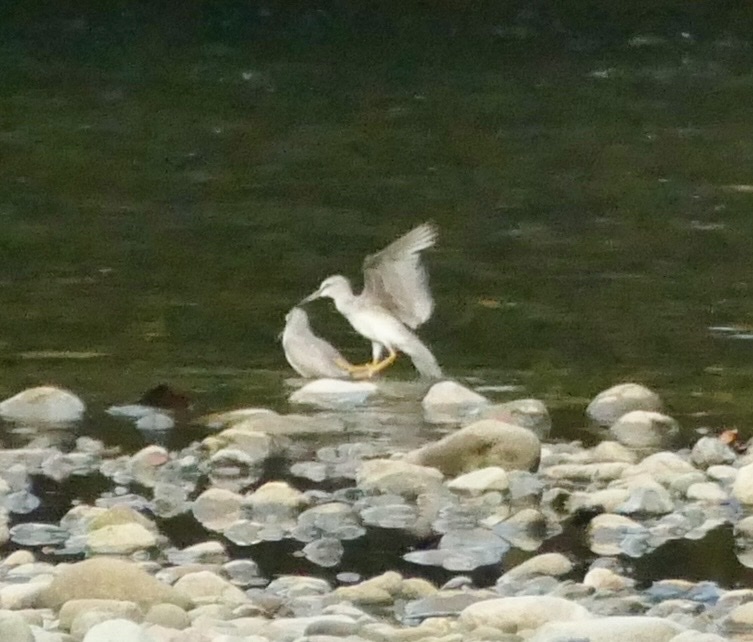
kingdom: Animalia
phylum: Chordata
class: Aves
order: Charadriiformes
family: Scolopacidae
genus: Tringa
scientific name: Tringa brevipes
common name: Grey-tailed tattler
